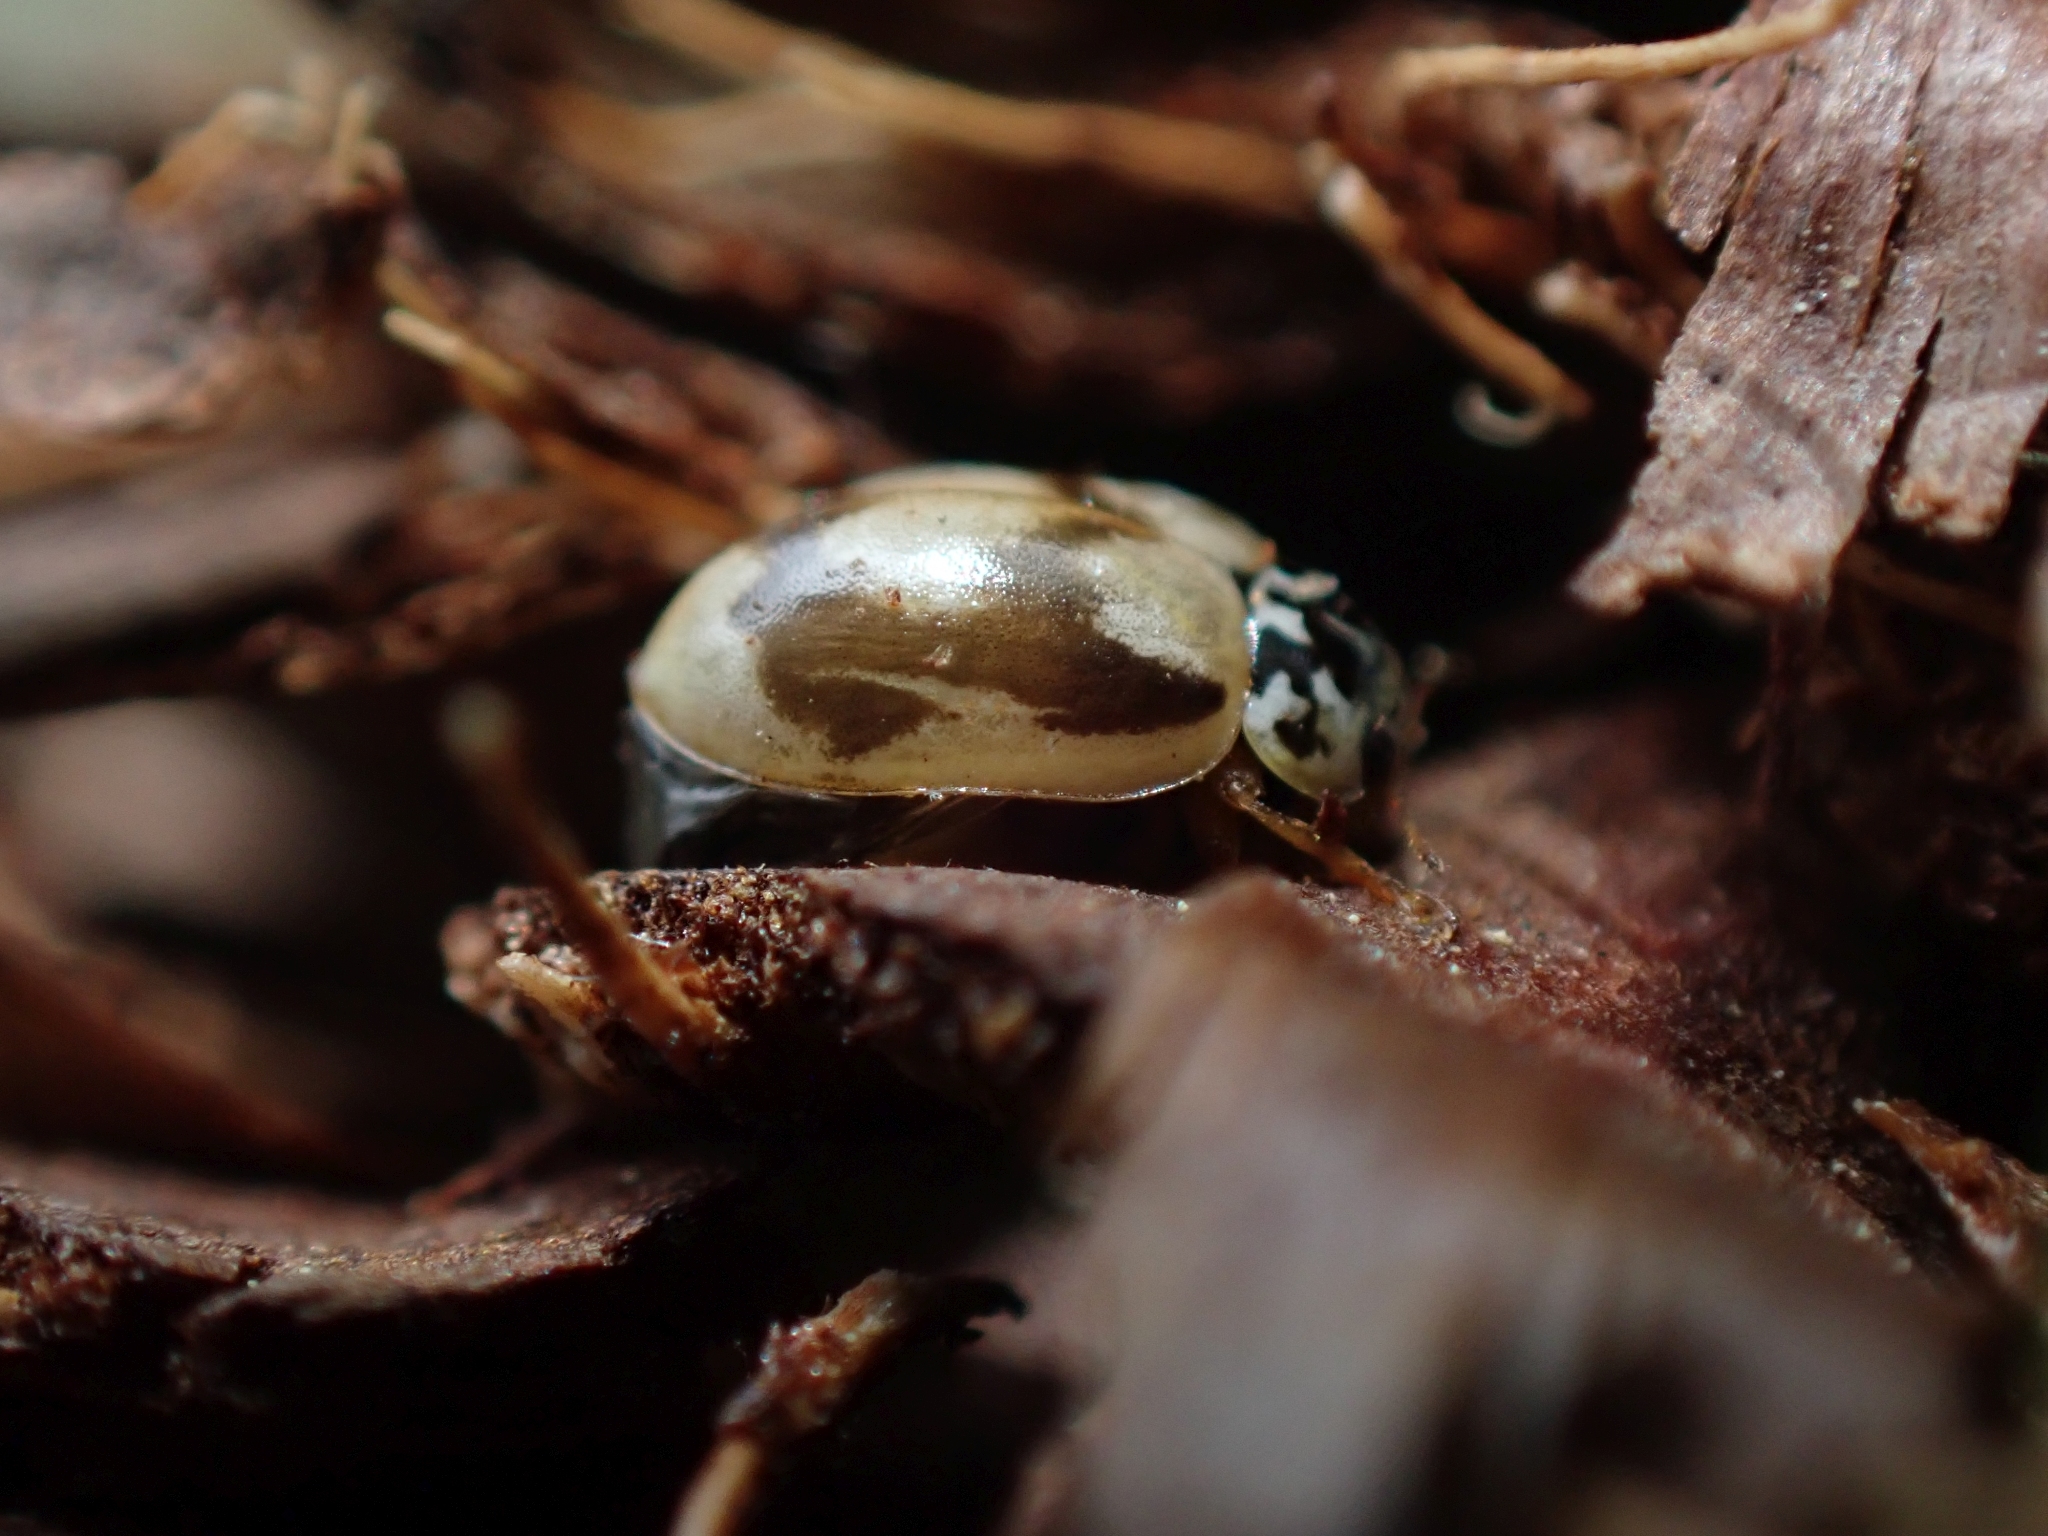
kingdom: Animalia
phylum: Arthropoda
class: Insecta
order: Coleoptera
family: Coccinellidae
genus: Mulsantina
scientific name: Mulsantina picta
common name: Painted ladybird
